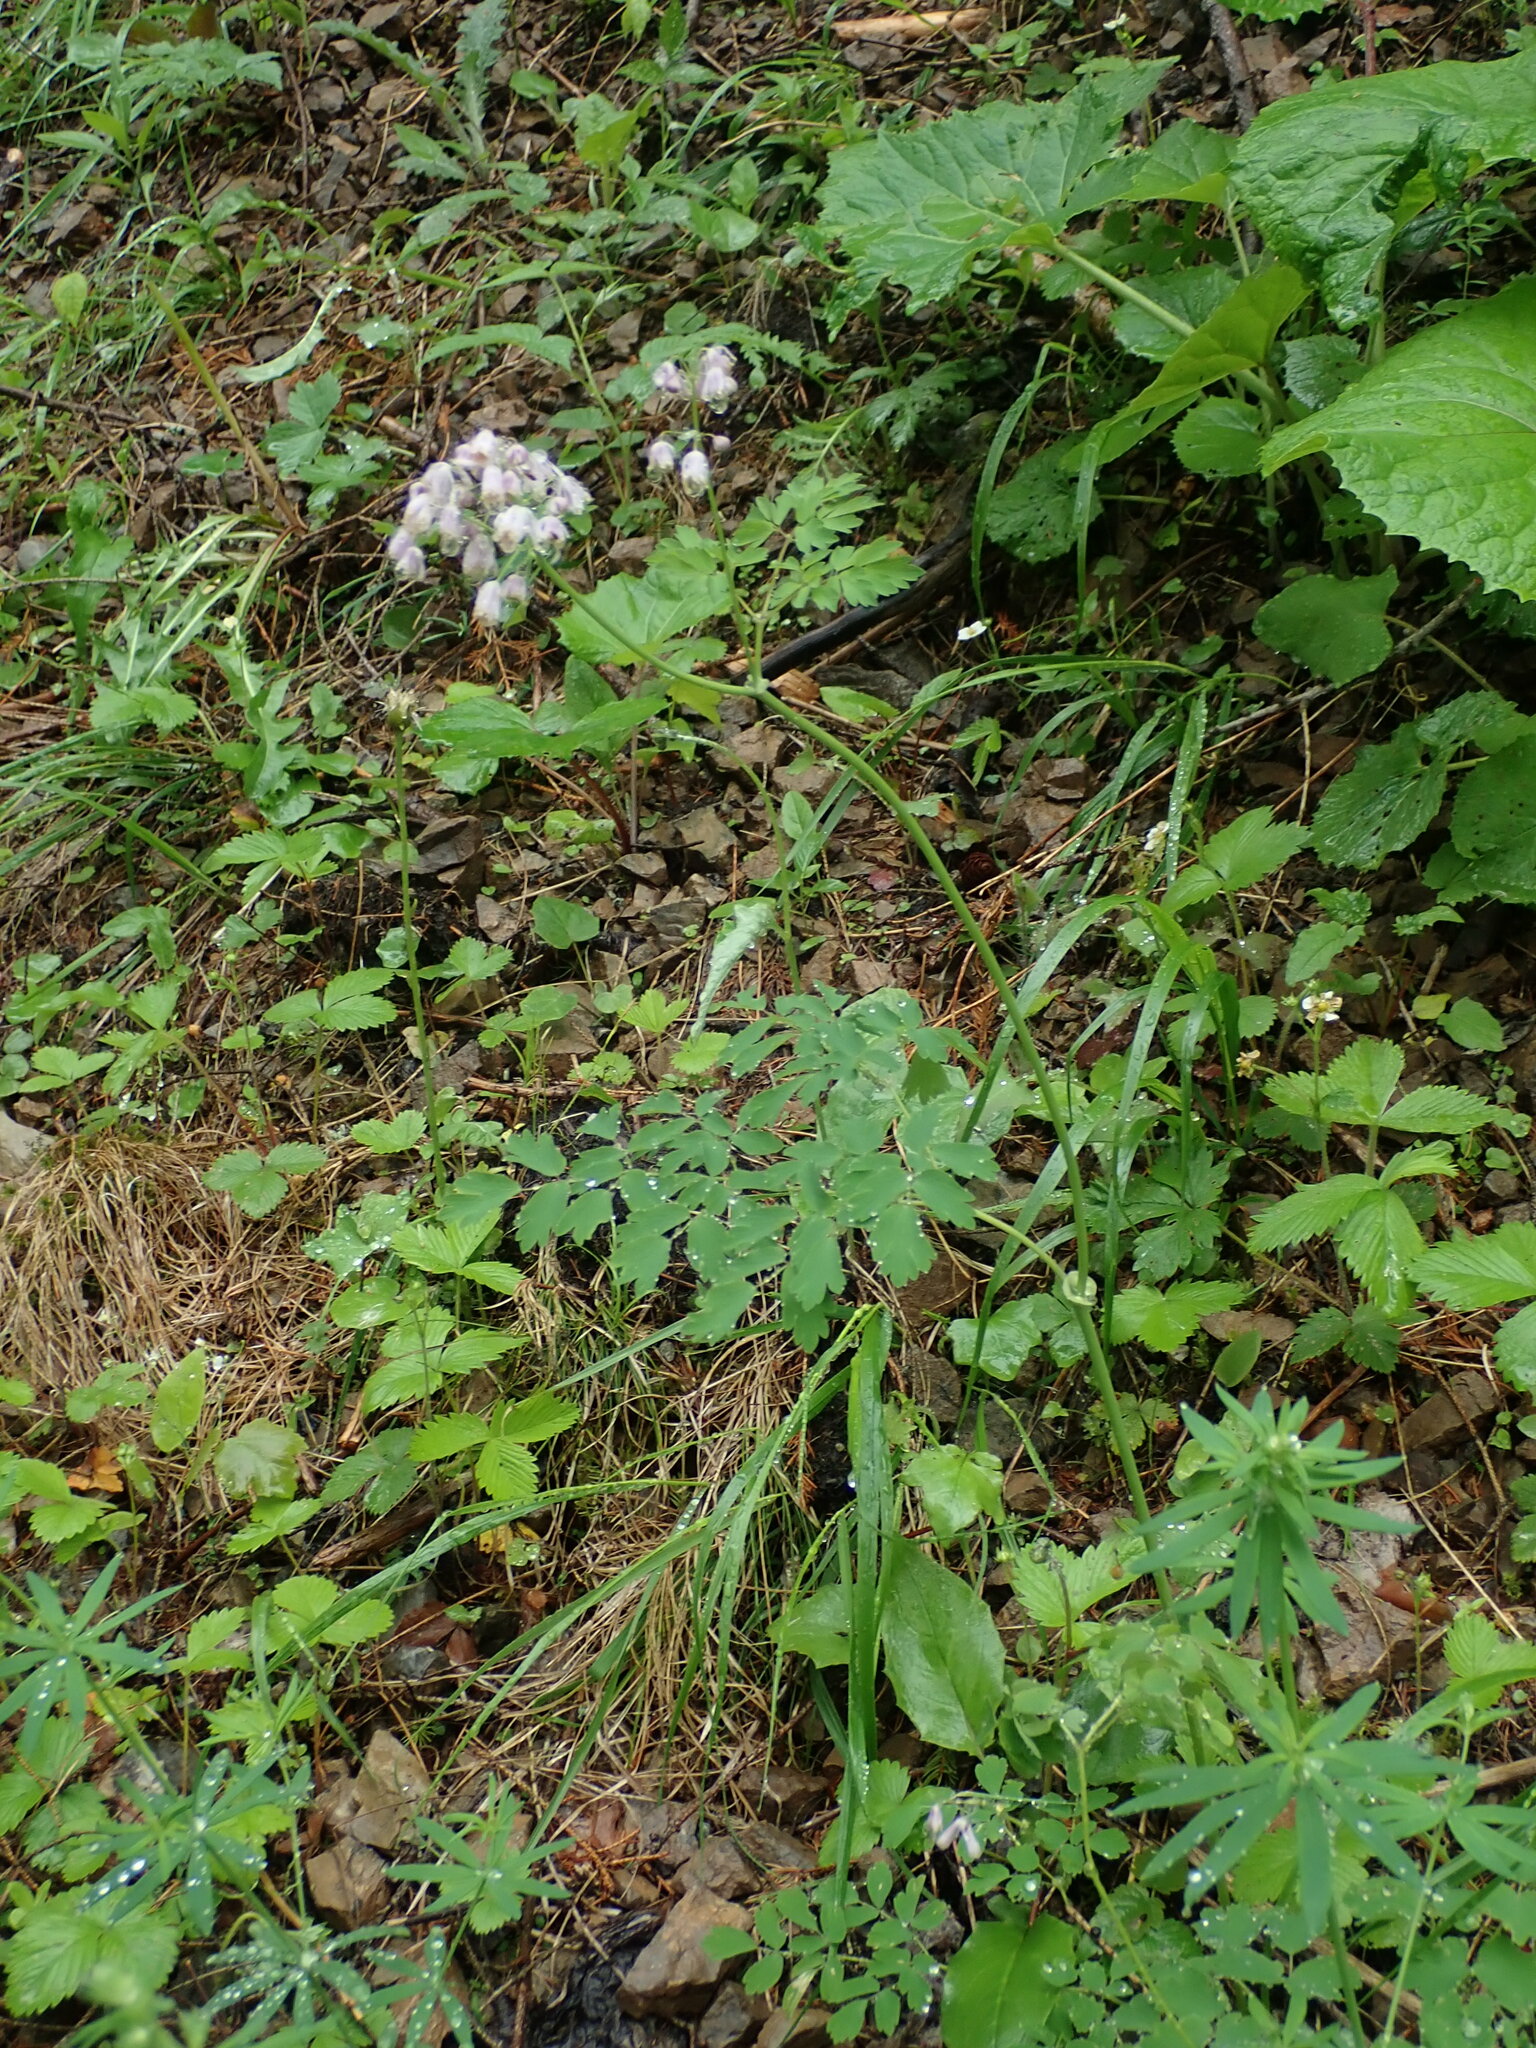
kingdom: Plantae
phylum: Tracheophyta
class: Magnoliopsida
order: Ranunculales
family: Ranunculaceae
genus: Thalictrum
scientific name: Thalictrum aquilegiifolium
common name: French meadow-rue
